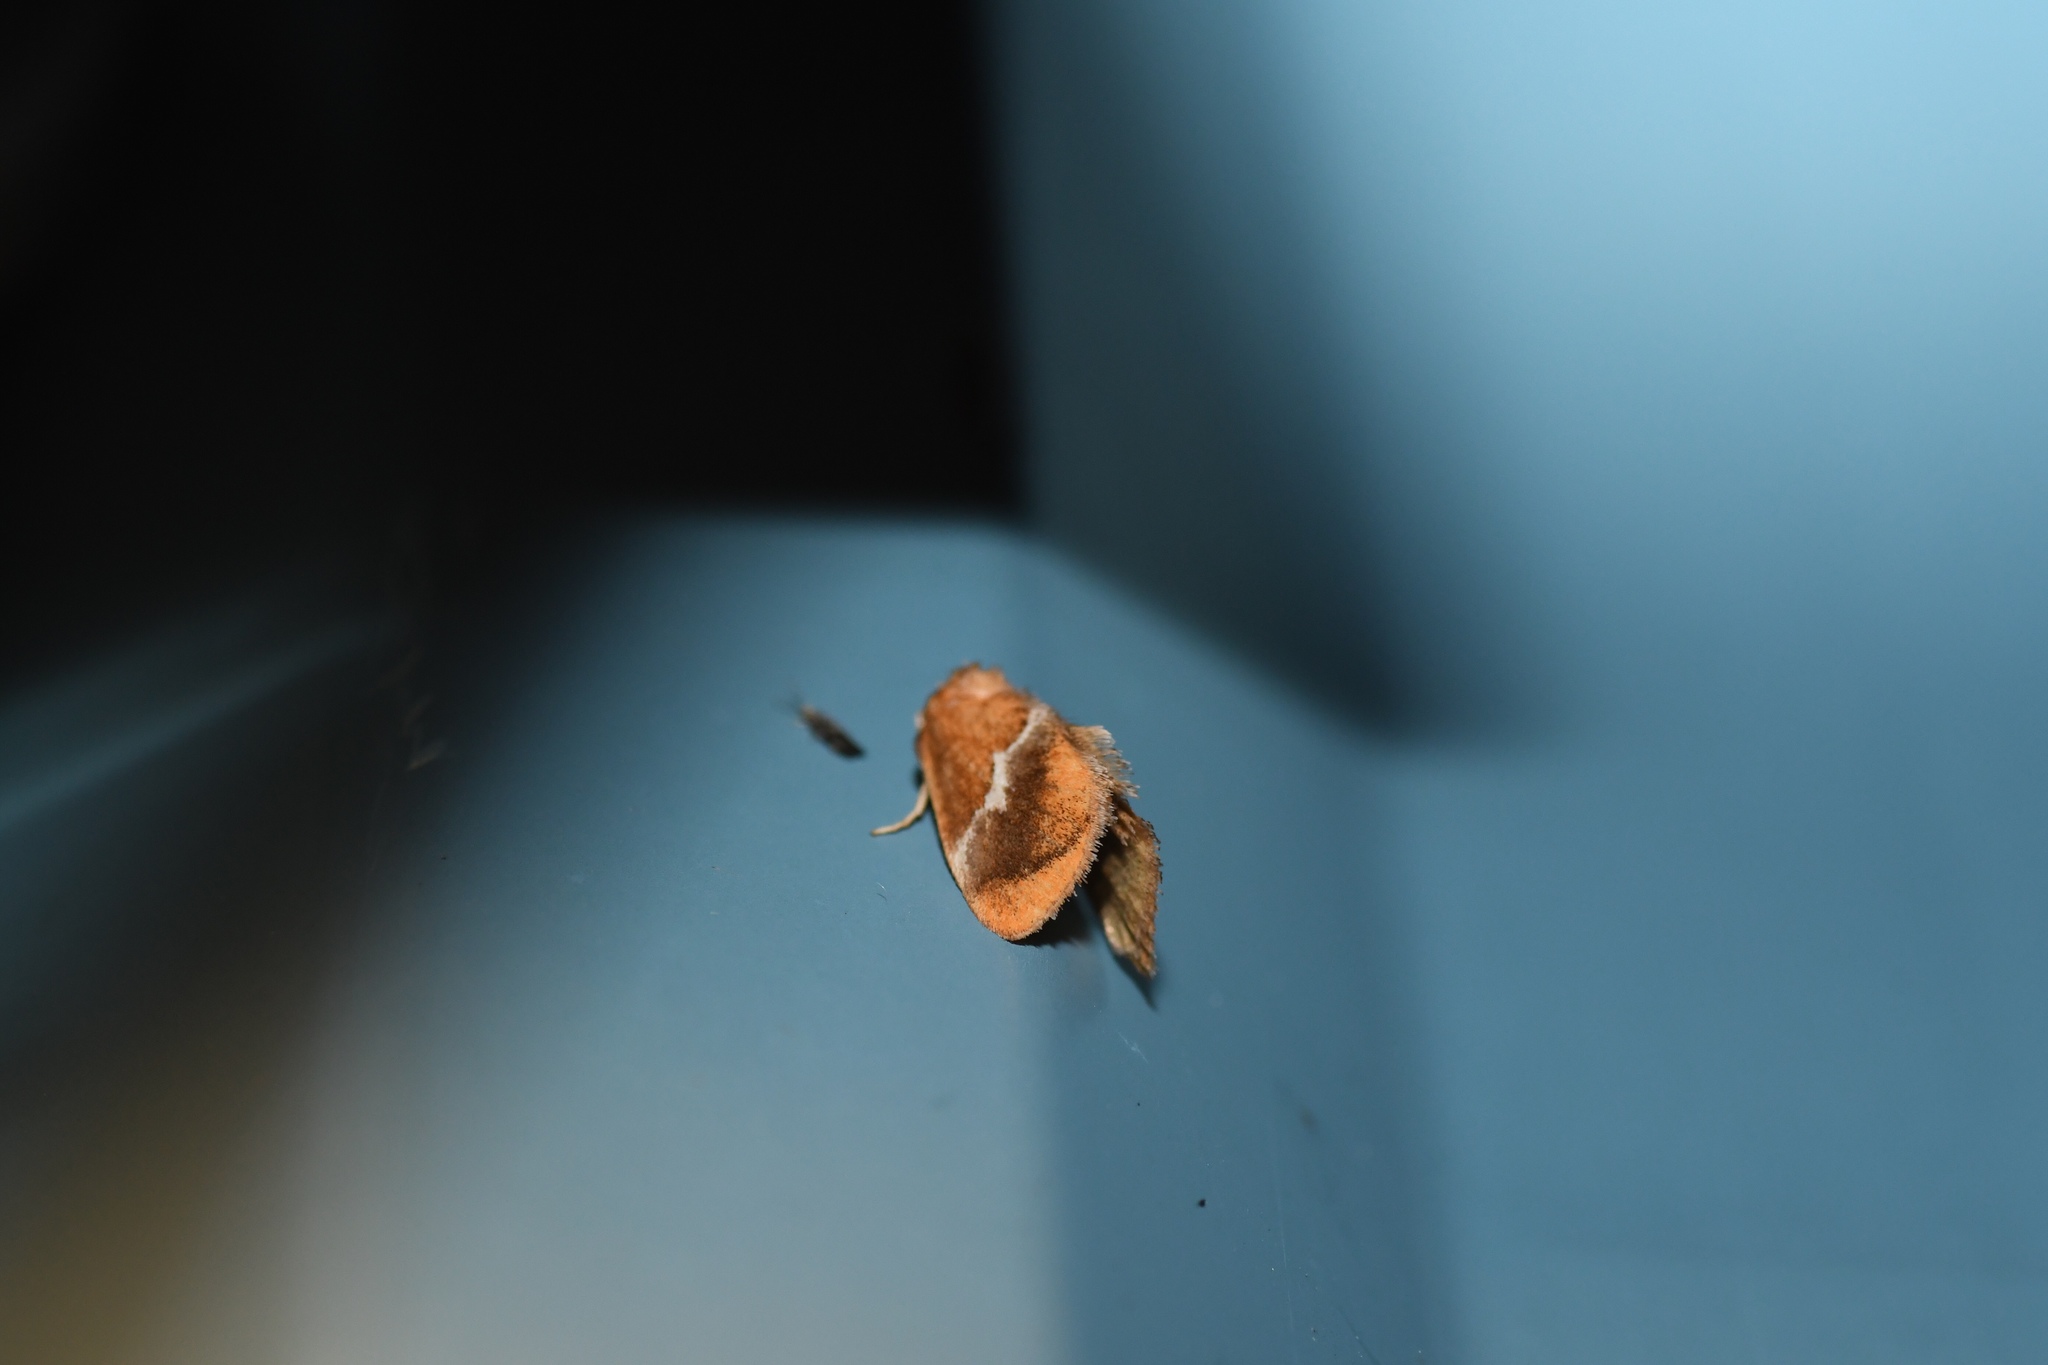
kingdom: Animalia
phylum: Arthropoda
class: Insecta
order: Lepidoptera
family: Limacodidae
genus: Lithacodes
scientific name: Lithacodes fasciola
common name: Yellow-shouldered slug moth
